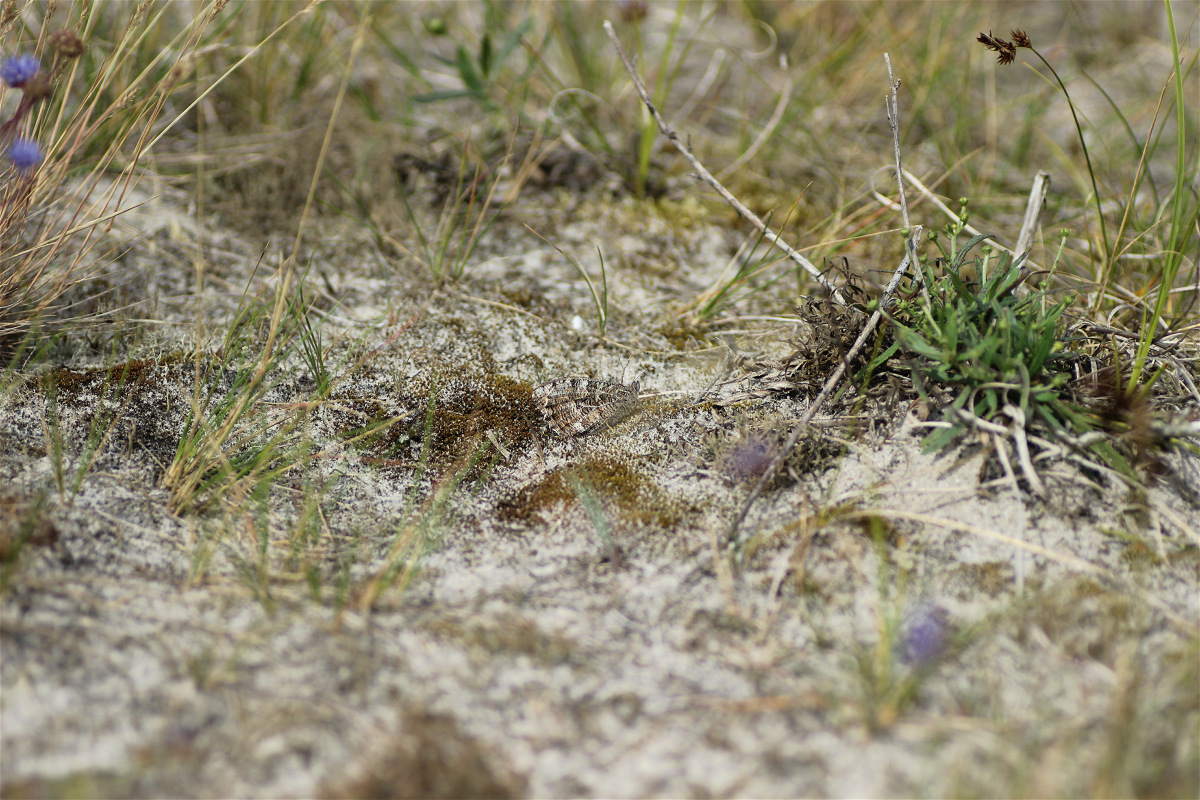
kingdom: Animalia
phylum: Arthropoda
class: Insecta
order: Lepidoptera
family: Nymphalidae
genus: Hipparchia
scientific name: Hipparchia semele
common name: Grayling
